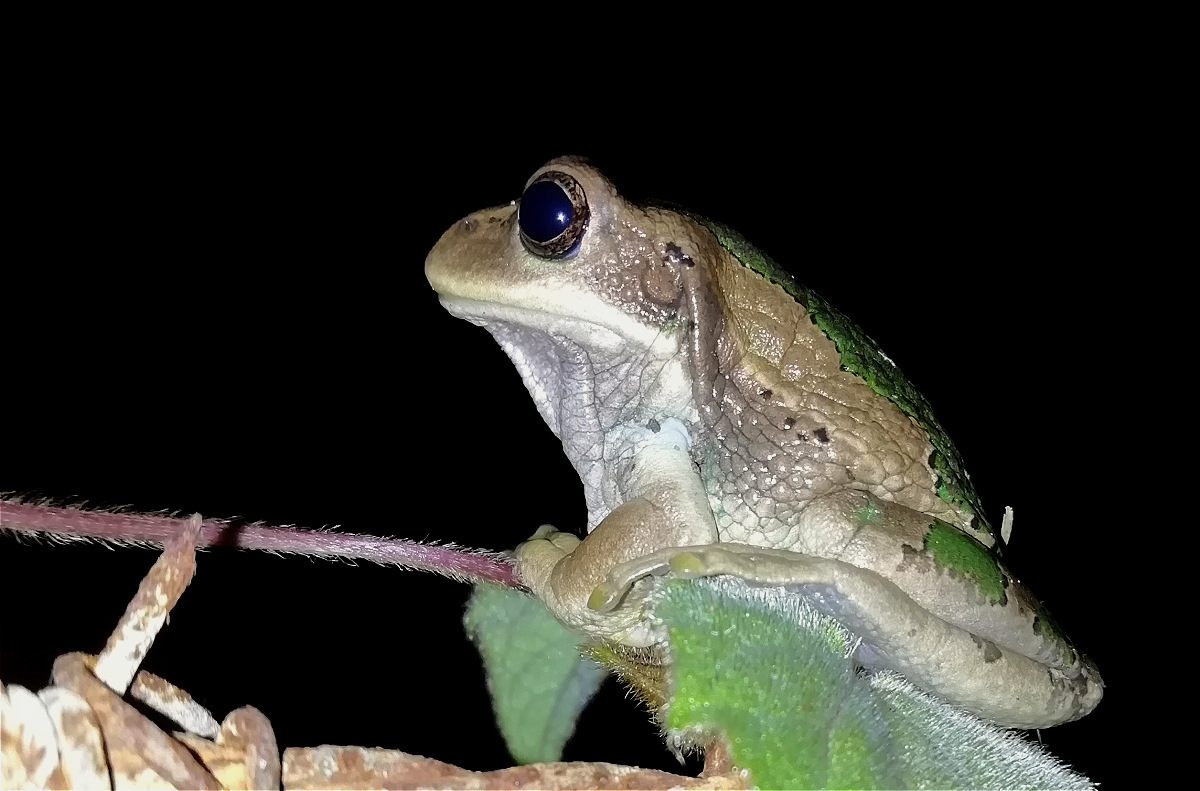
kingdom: Animalia
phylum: Chordata
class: Amphibia
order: Anura
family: Hemiphractidae
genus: Gastrotheca
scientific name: Gastrotheca cuencana
